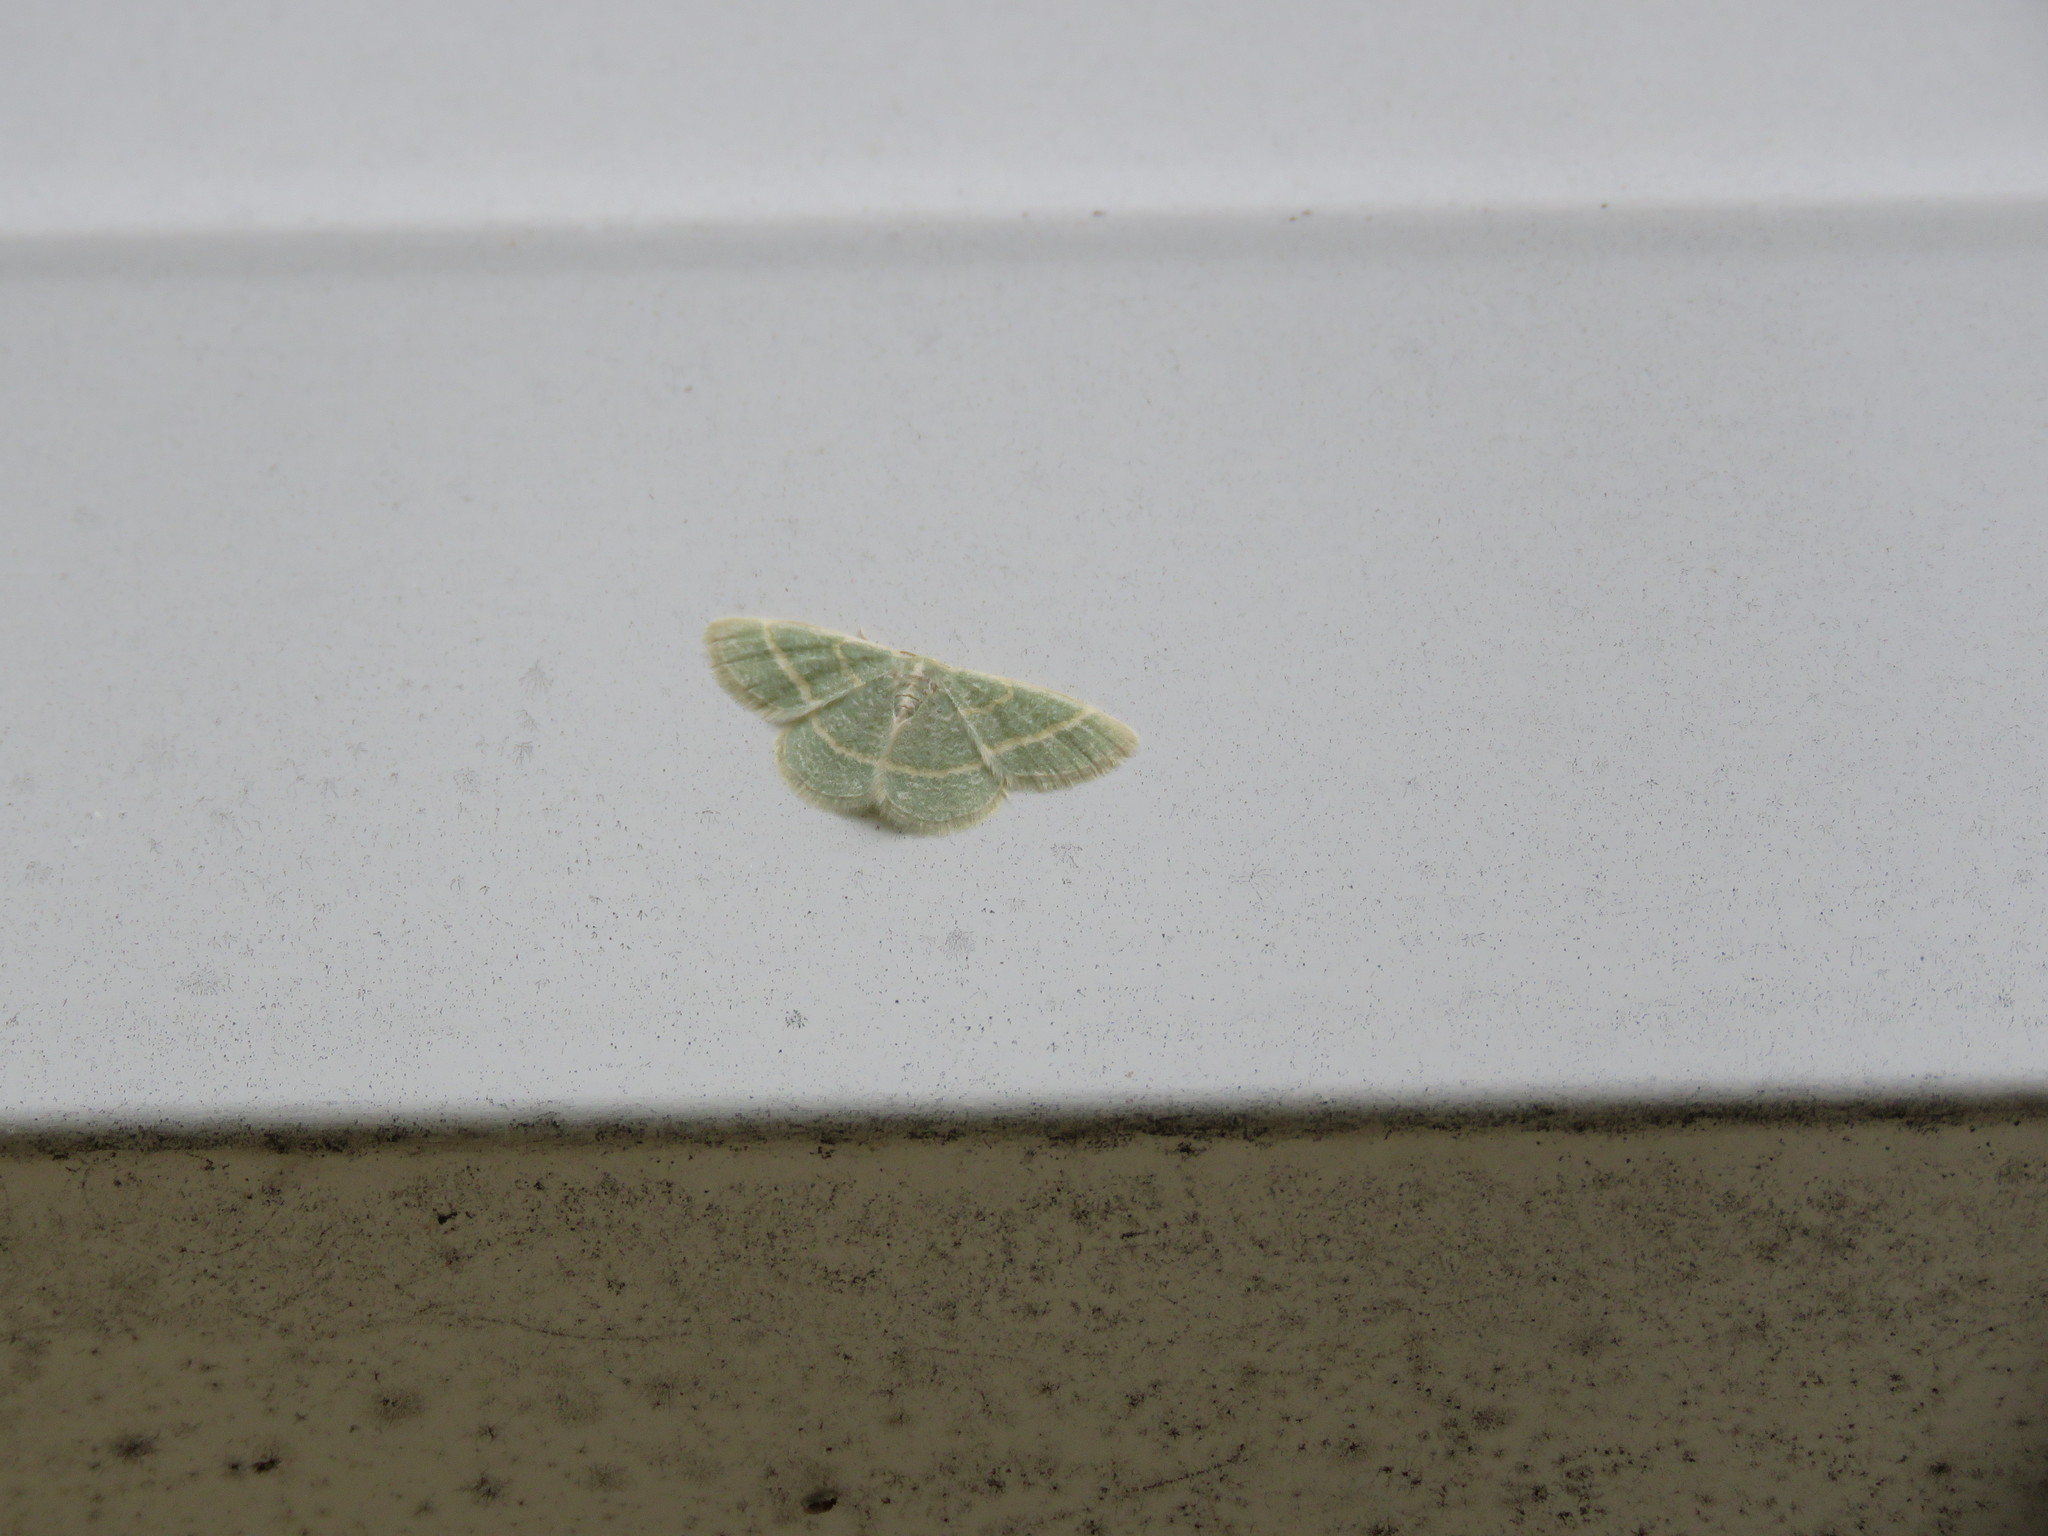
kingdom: Animalia
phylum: Arthropoda
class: Insecta
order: Lepidoptera
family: Geometridae
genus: Chlorochlamys
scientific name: Chlorochlamys chloroleucaria
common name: Blackberry looper
